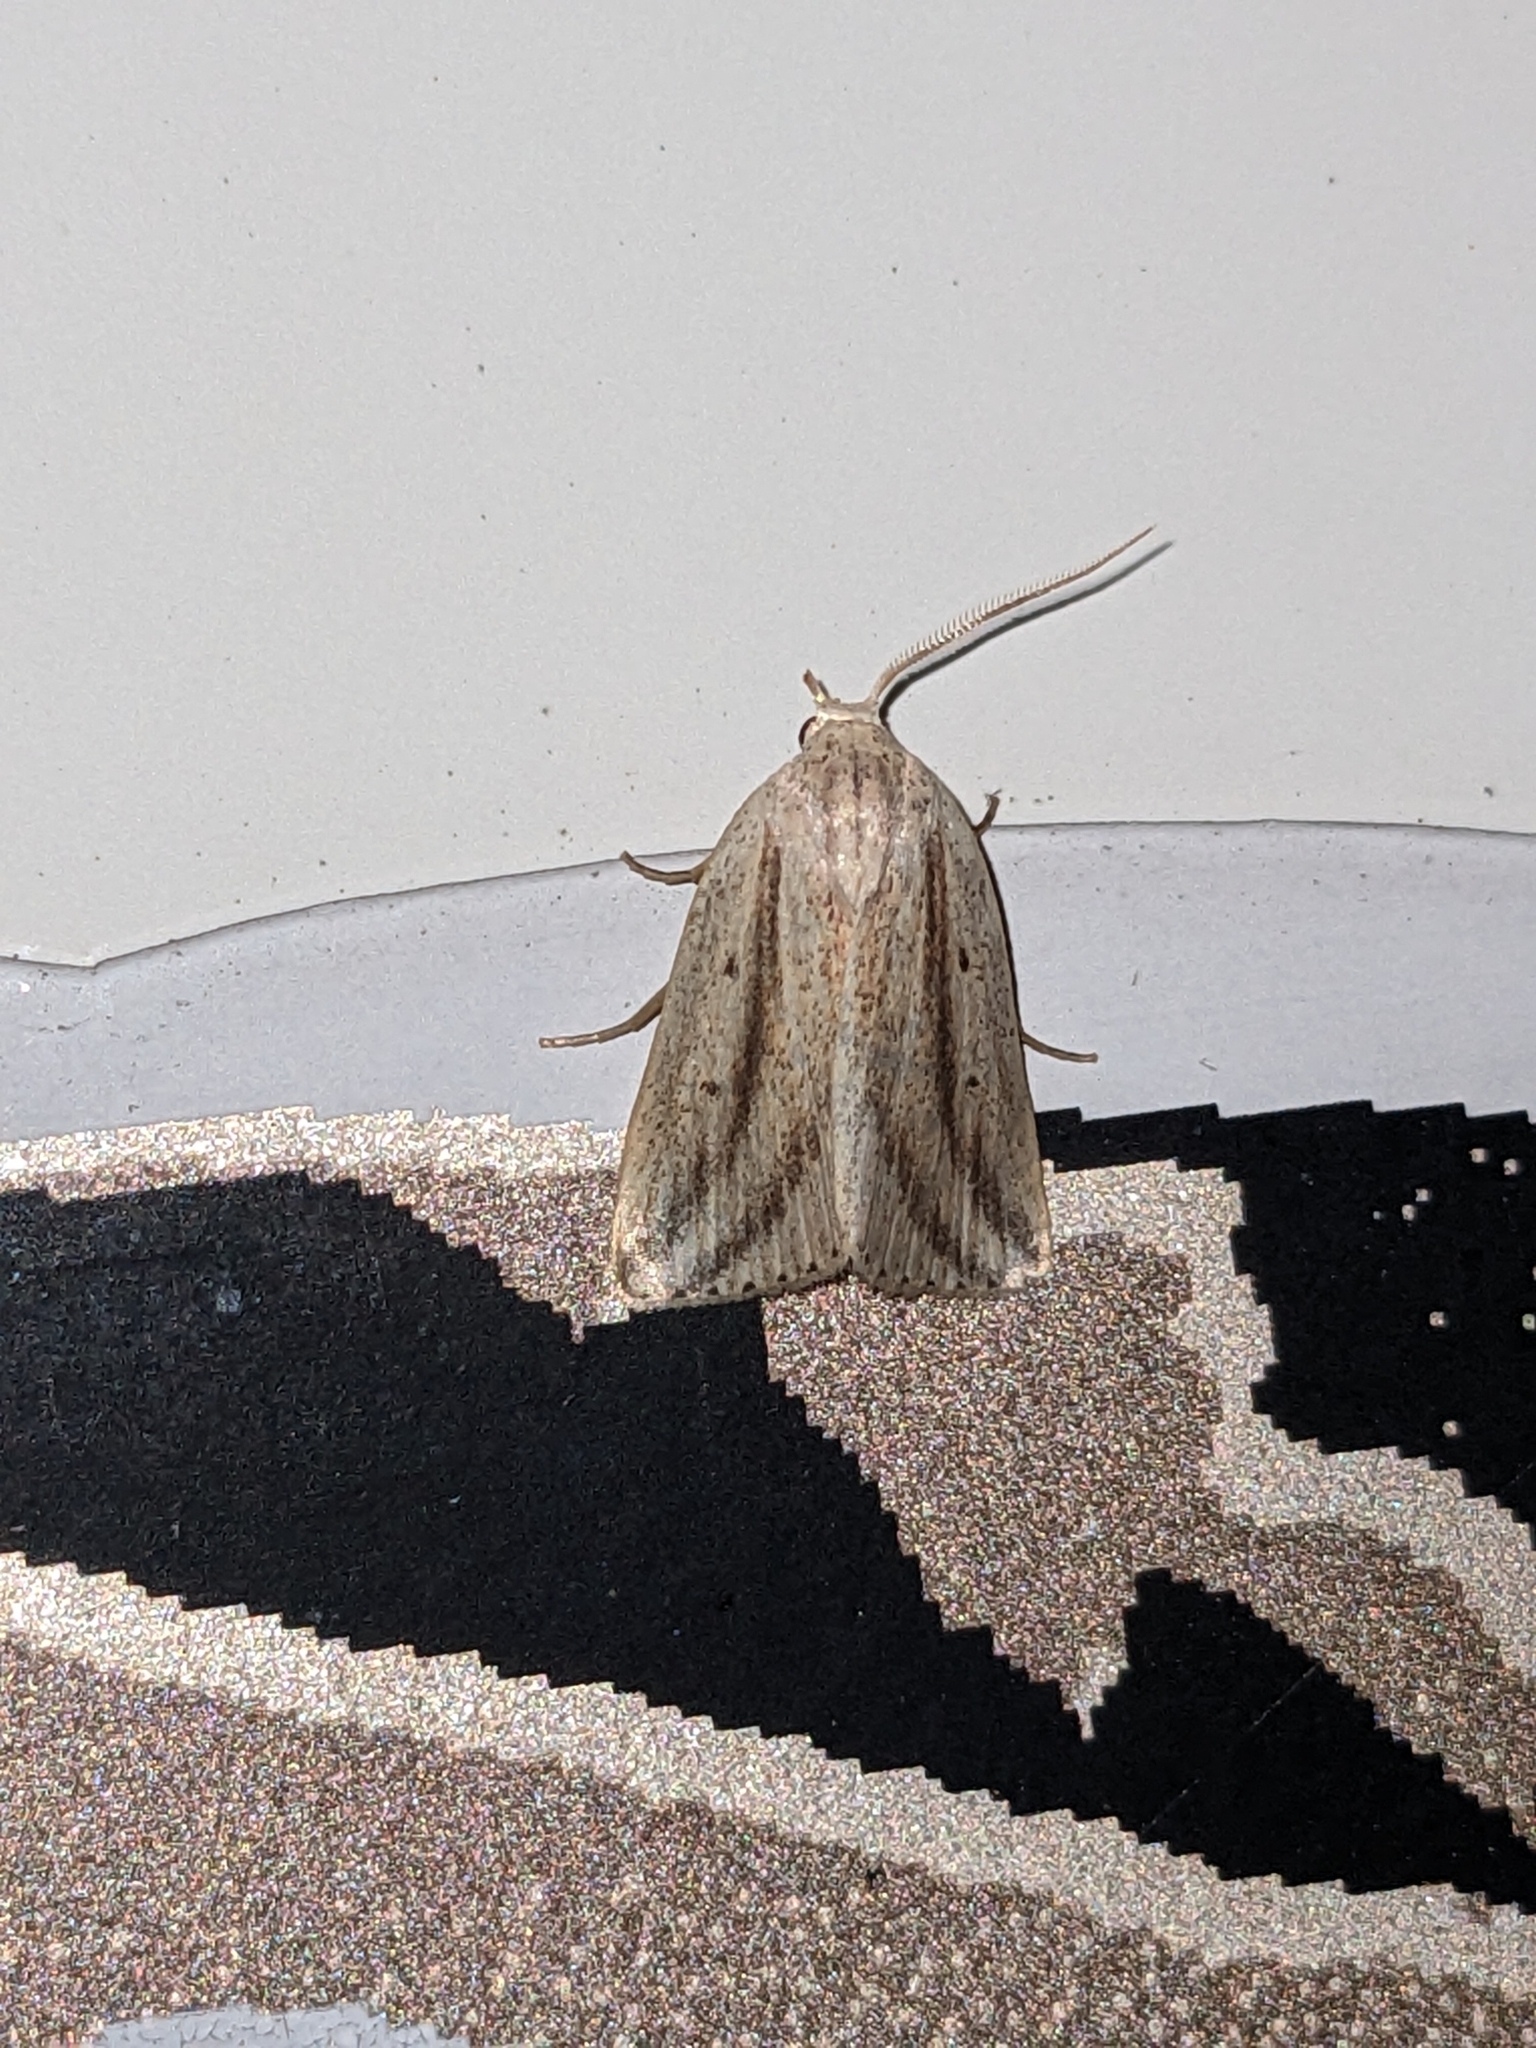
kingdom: Animalia
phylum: Arthropoda
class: Insecta
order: Lepidoptera
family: Noctuidae
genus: Amolita
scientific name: Amolita fessa
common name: Feeble grass moth
